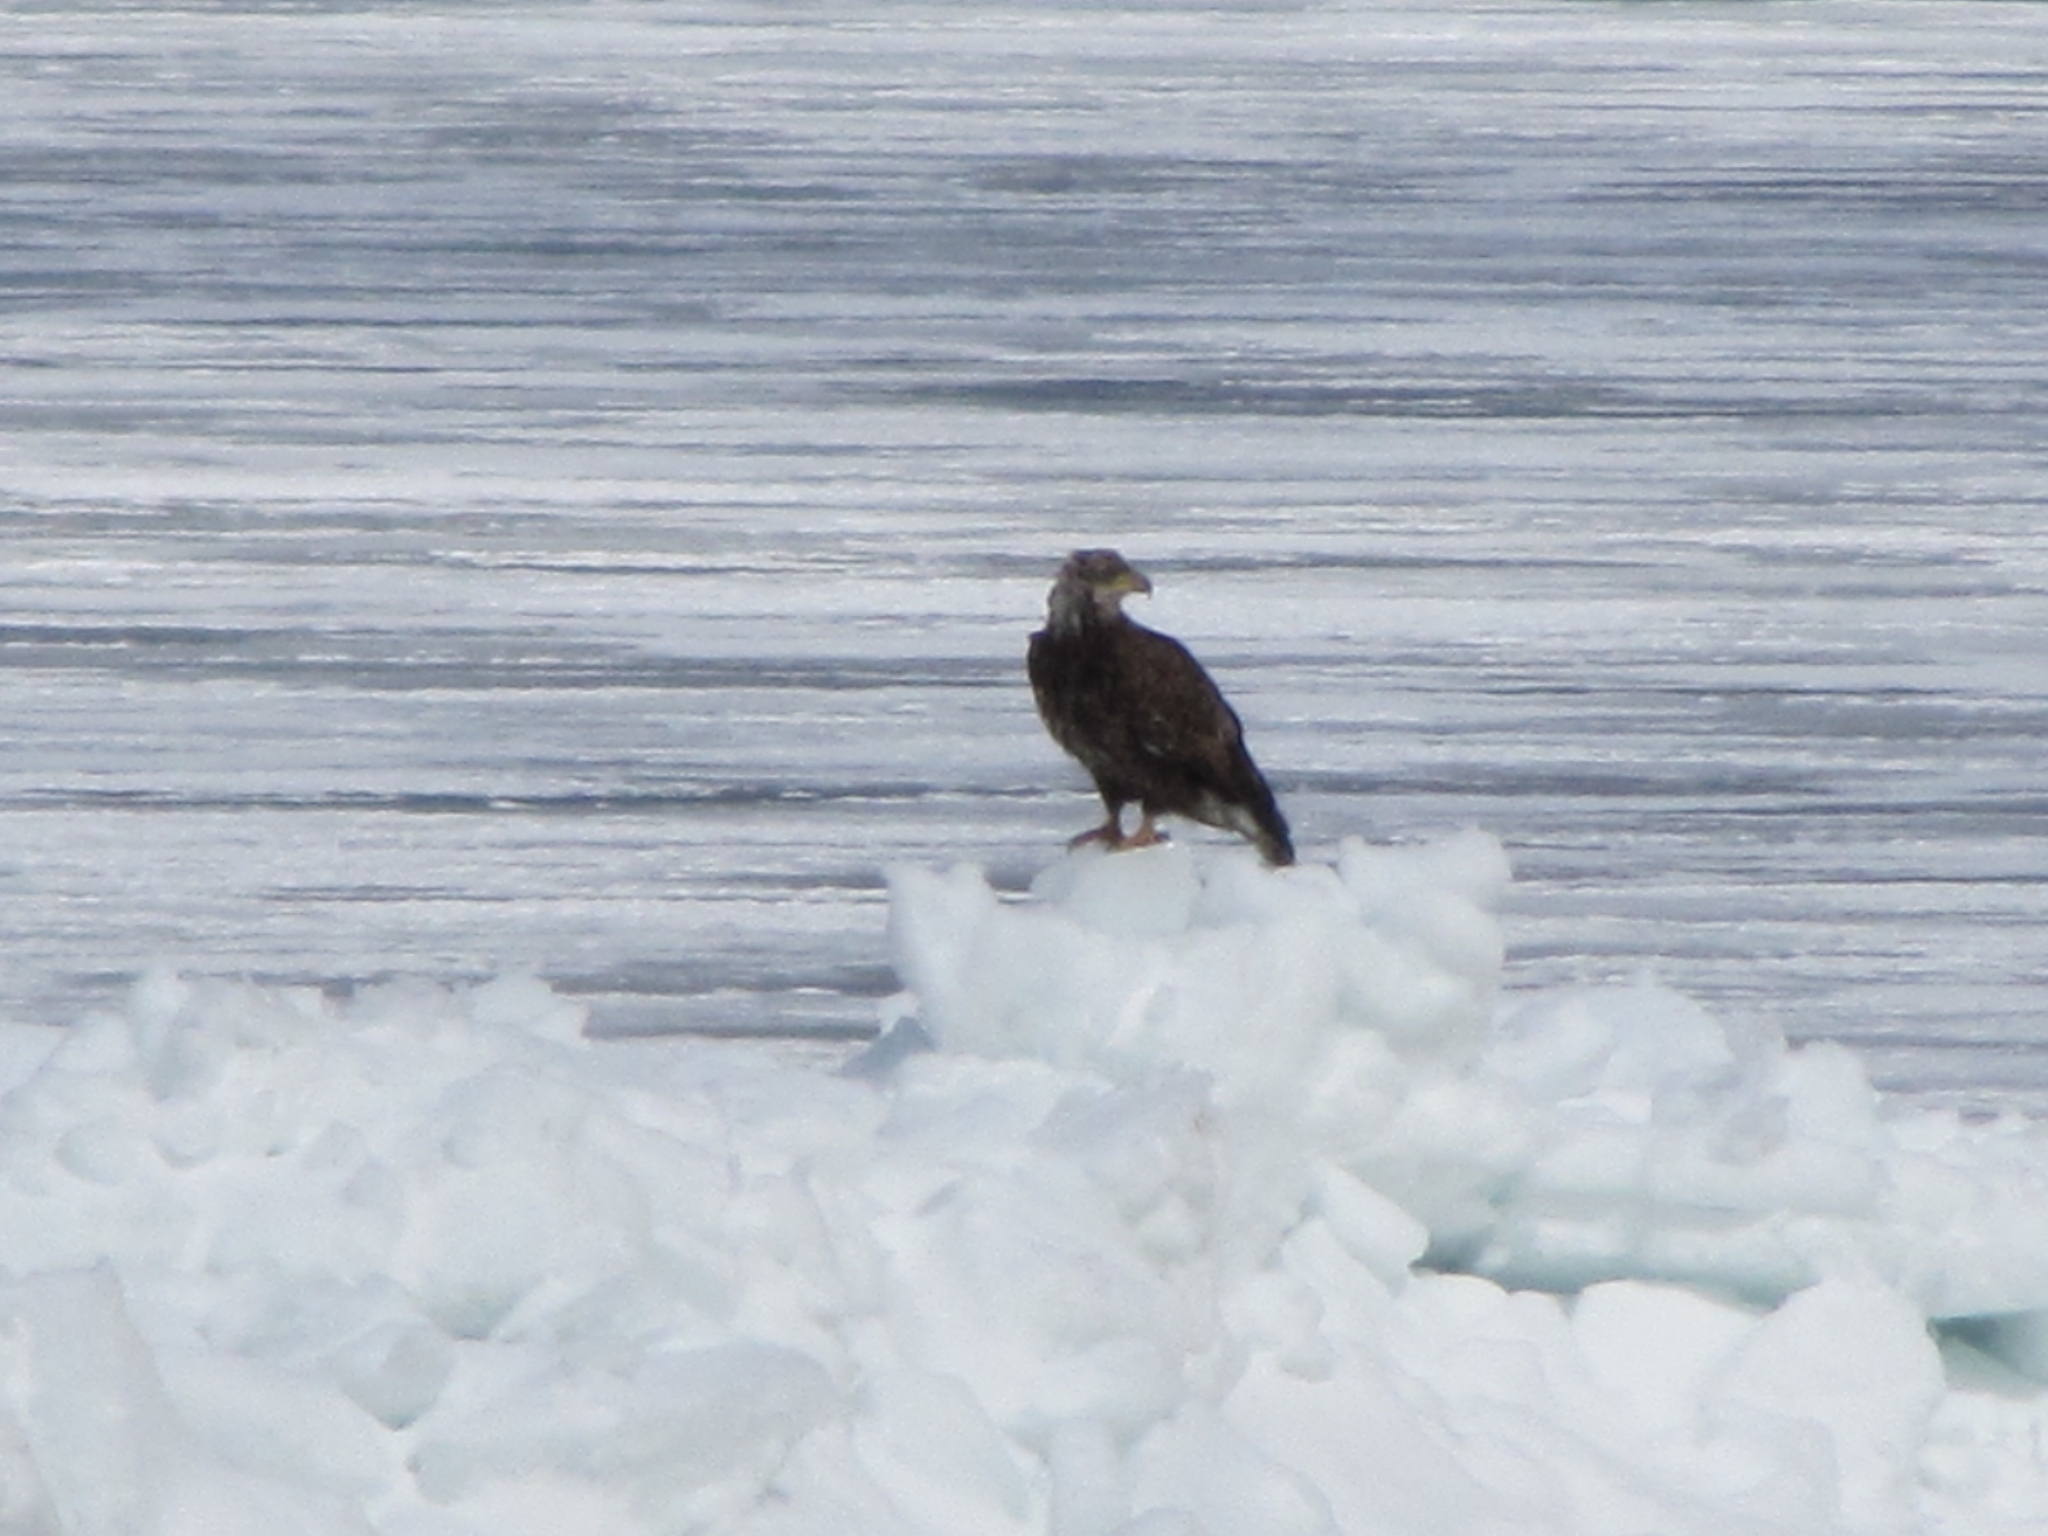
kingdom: Animalia
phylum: Chordata
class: Aves
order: Accipitriformes
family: Accipitridae
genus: Haliaeetus
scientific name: Haliaeetus leucocephalus
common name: Bald eagle
